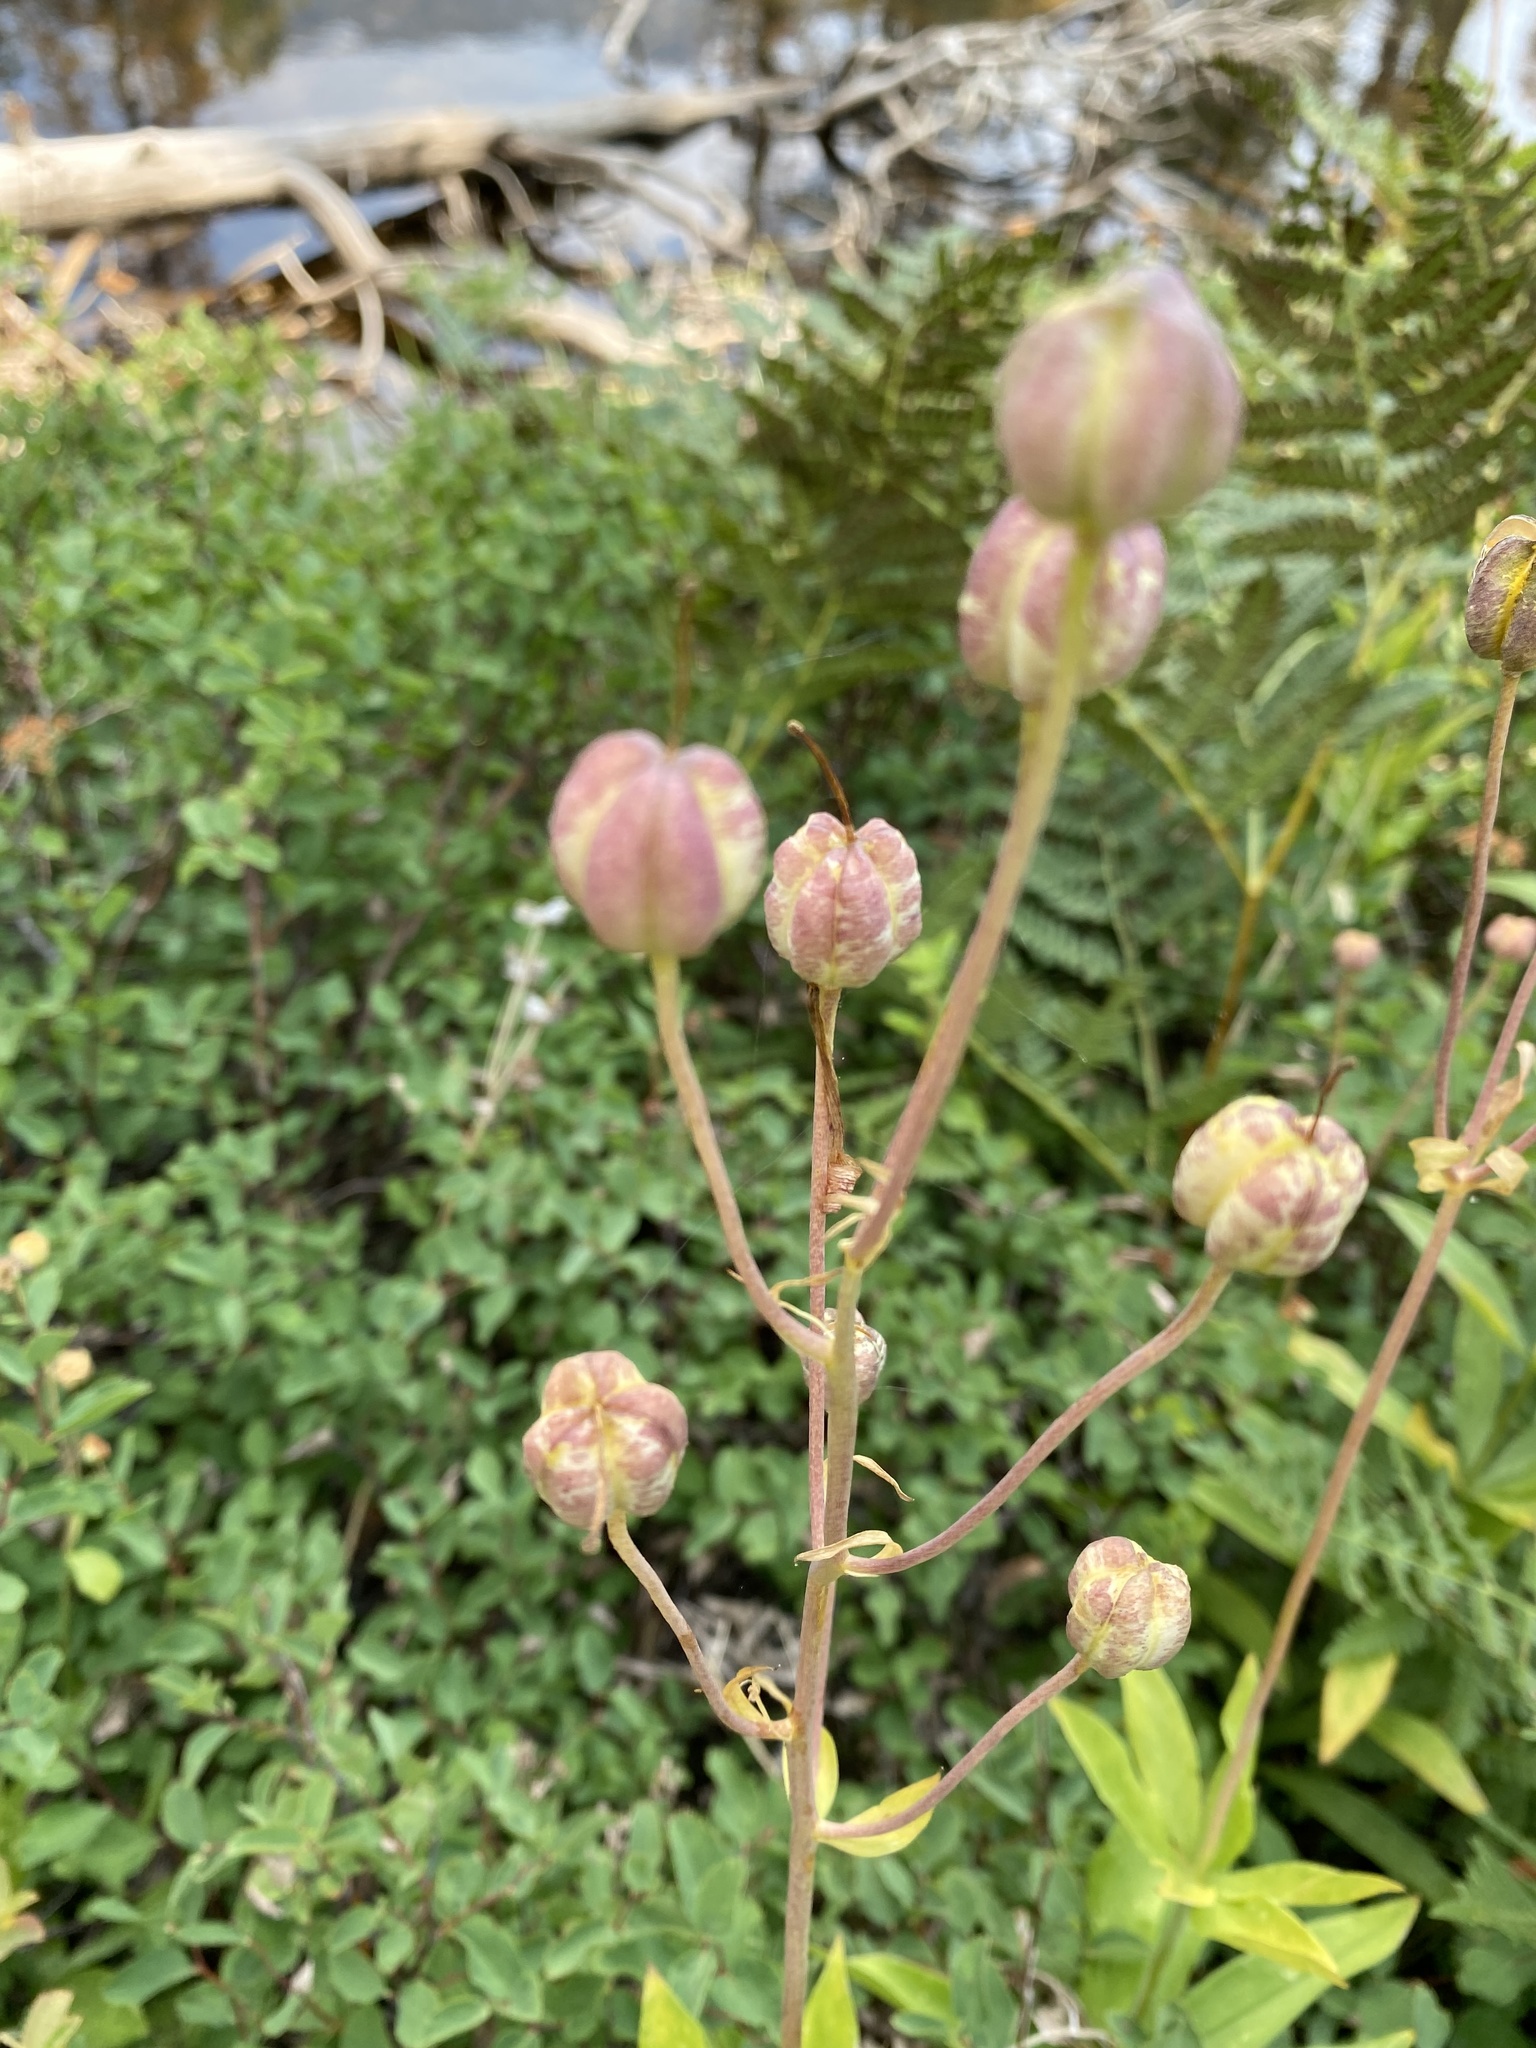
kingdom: Plantae
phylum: Tracheophyta
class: Liliopsida
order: Liliales
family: Liliaceae
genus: Lilium
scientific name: Lilium parvum
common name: Alpine lily
